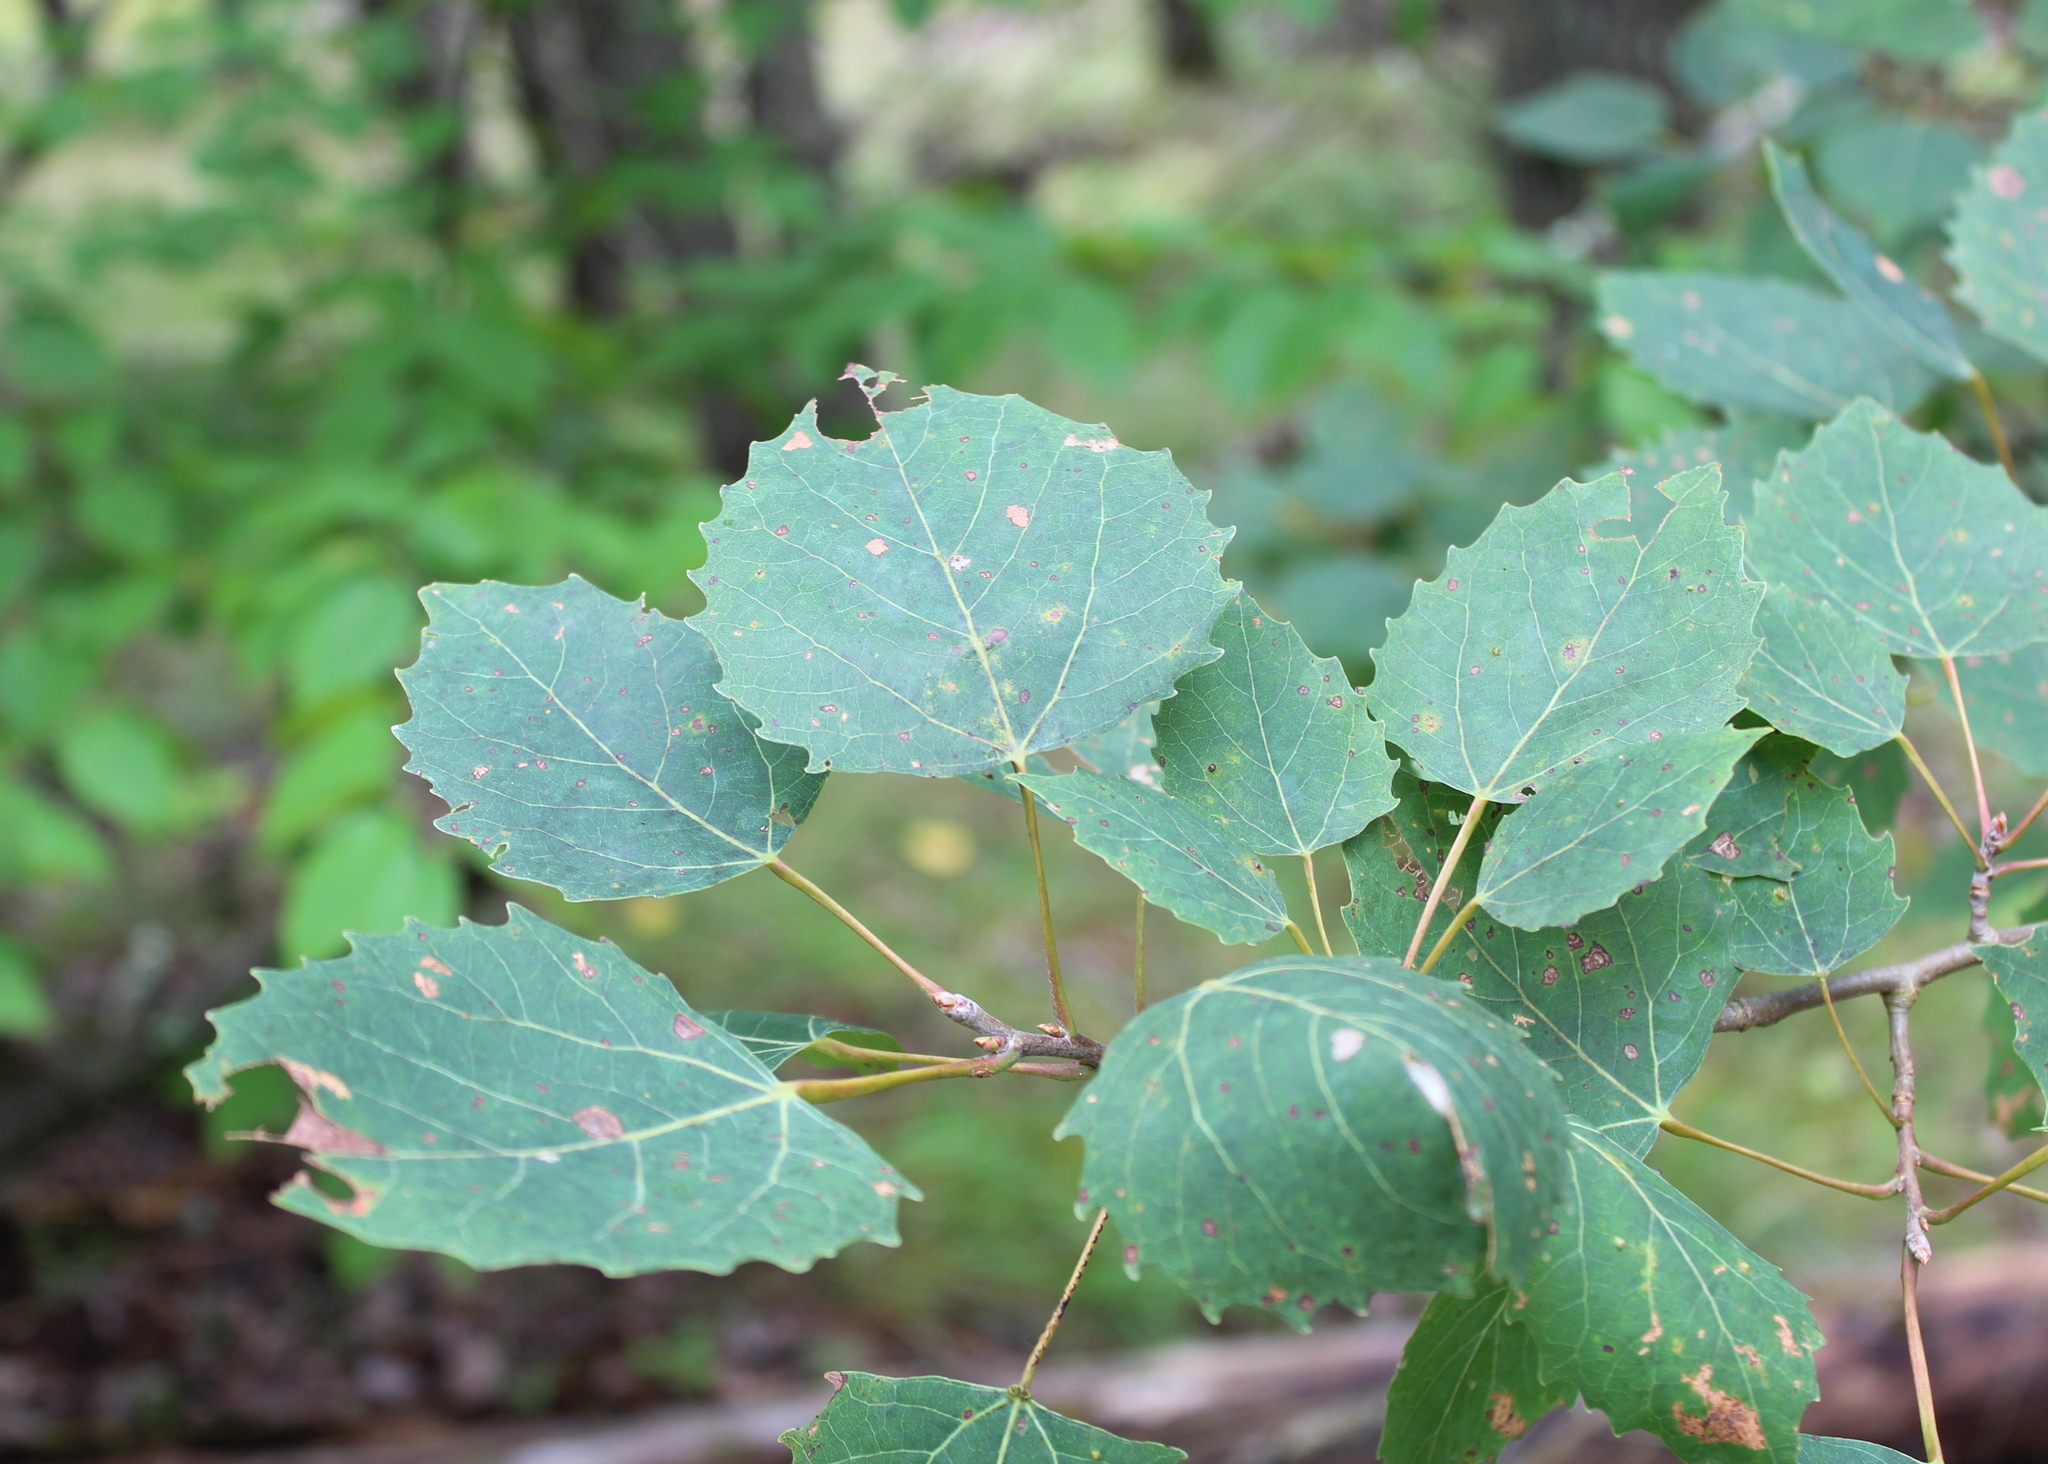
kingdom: Plantae
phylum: Tracheophyta
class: Magnoliopsida
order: Malpighiales
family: Salicaceae
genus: Populus
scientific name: Populus grandidentata
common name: Bigtooth aspen
